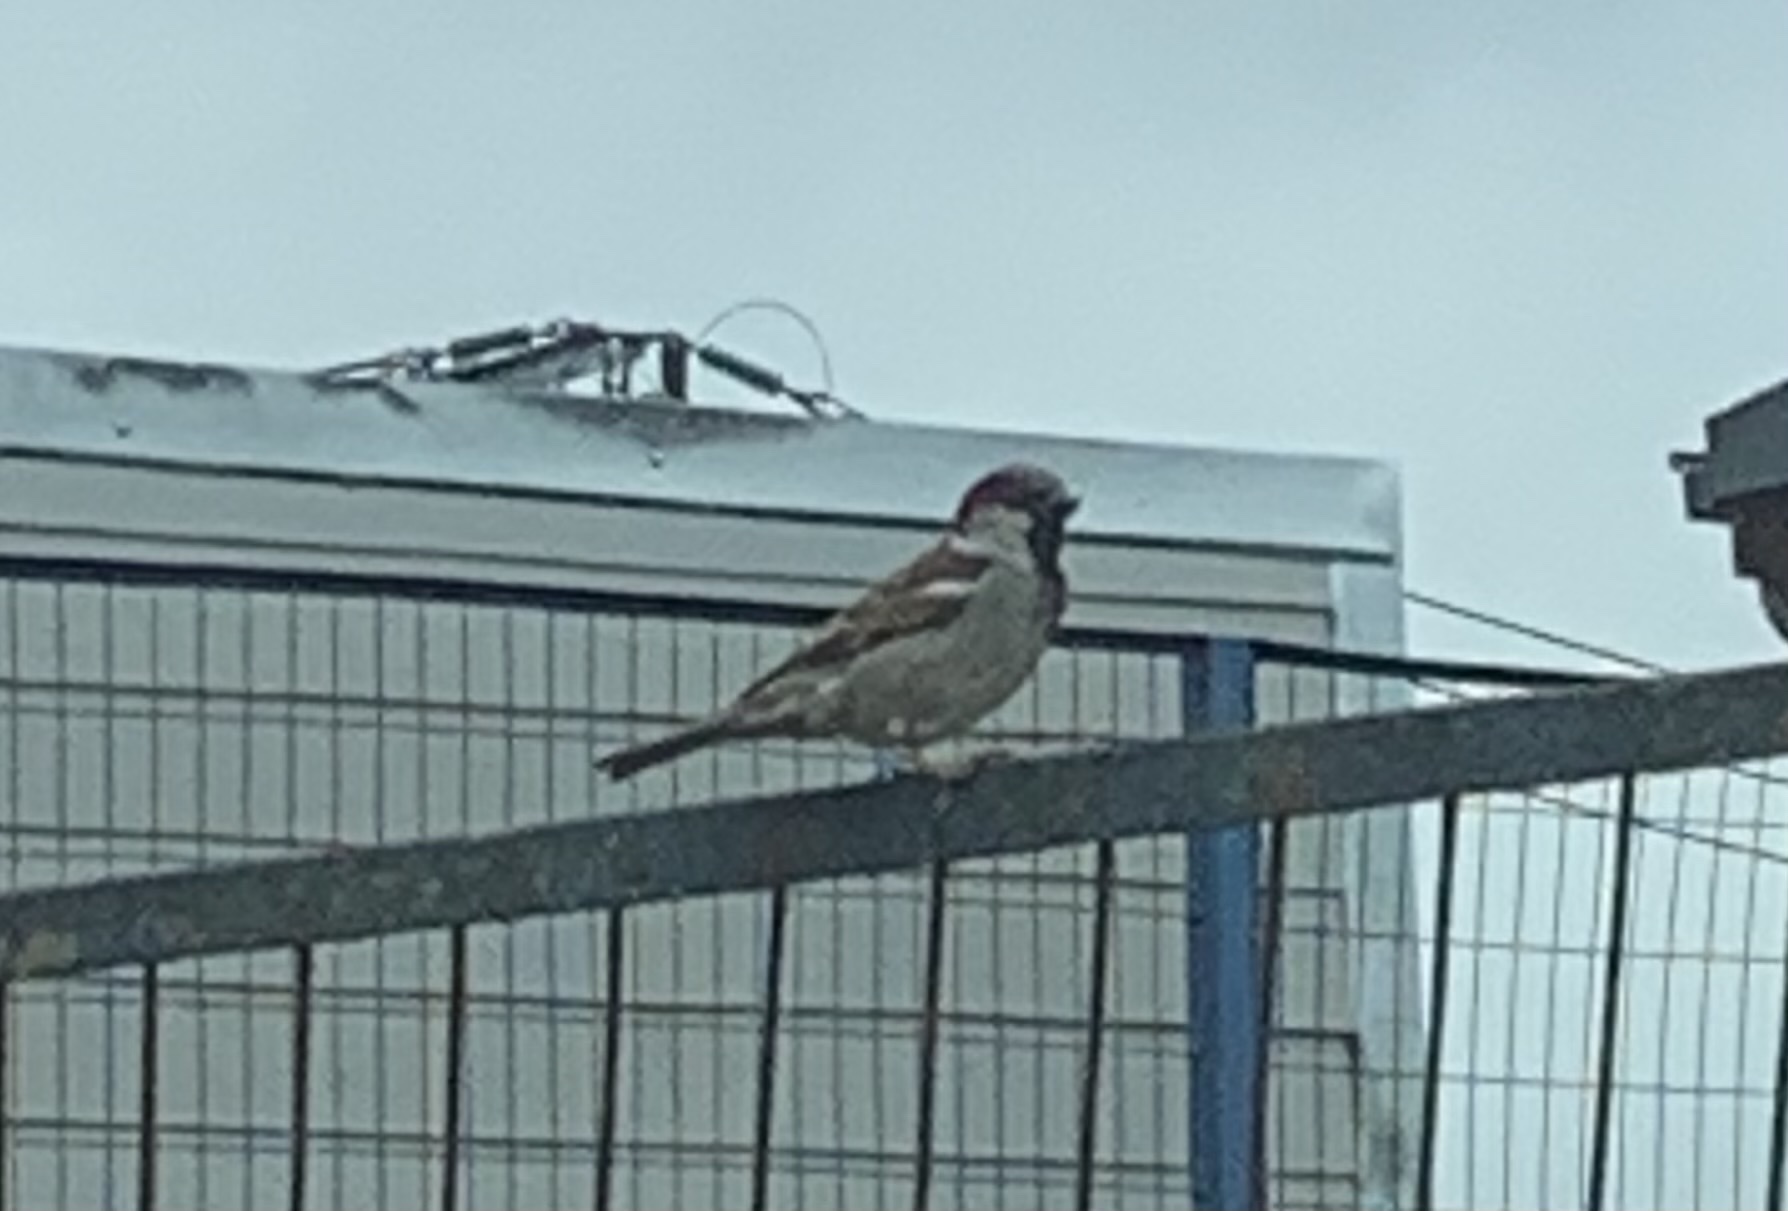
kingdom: Animalia
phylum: Chordata
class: Aves
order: Passeriformes
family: Passeridae
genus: Passer
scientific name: Passer domesticus
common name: House sparrow
